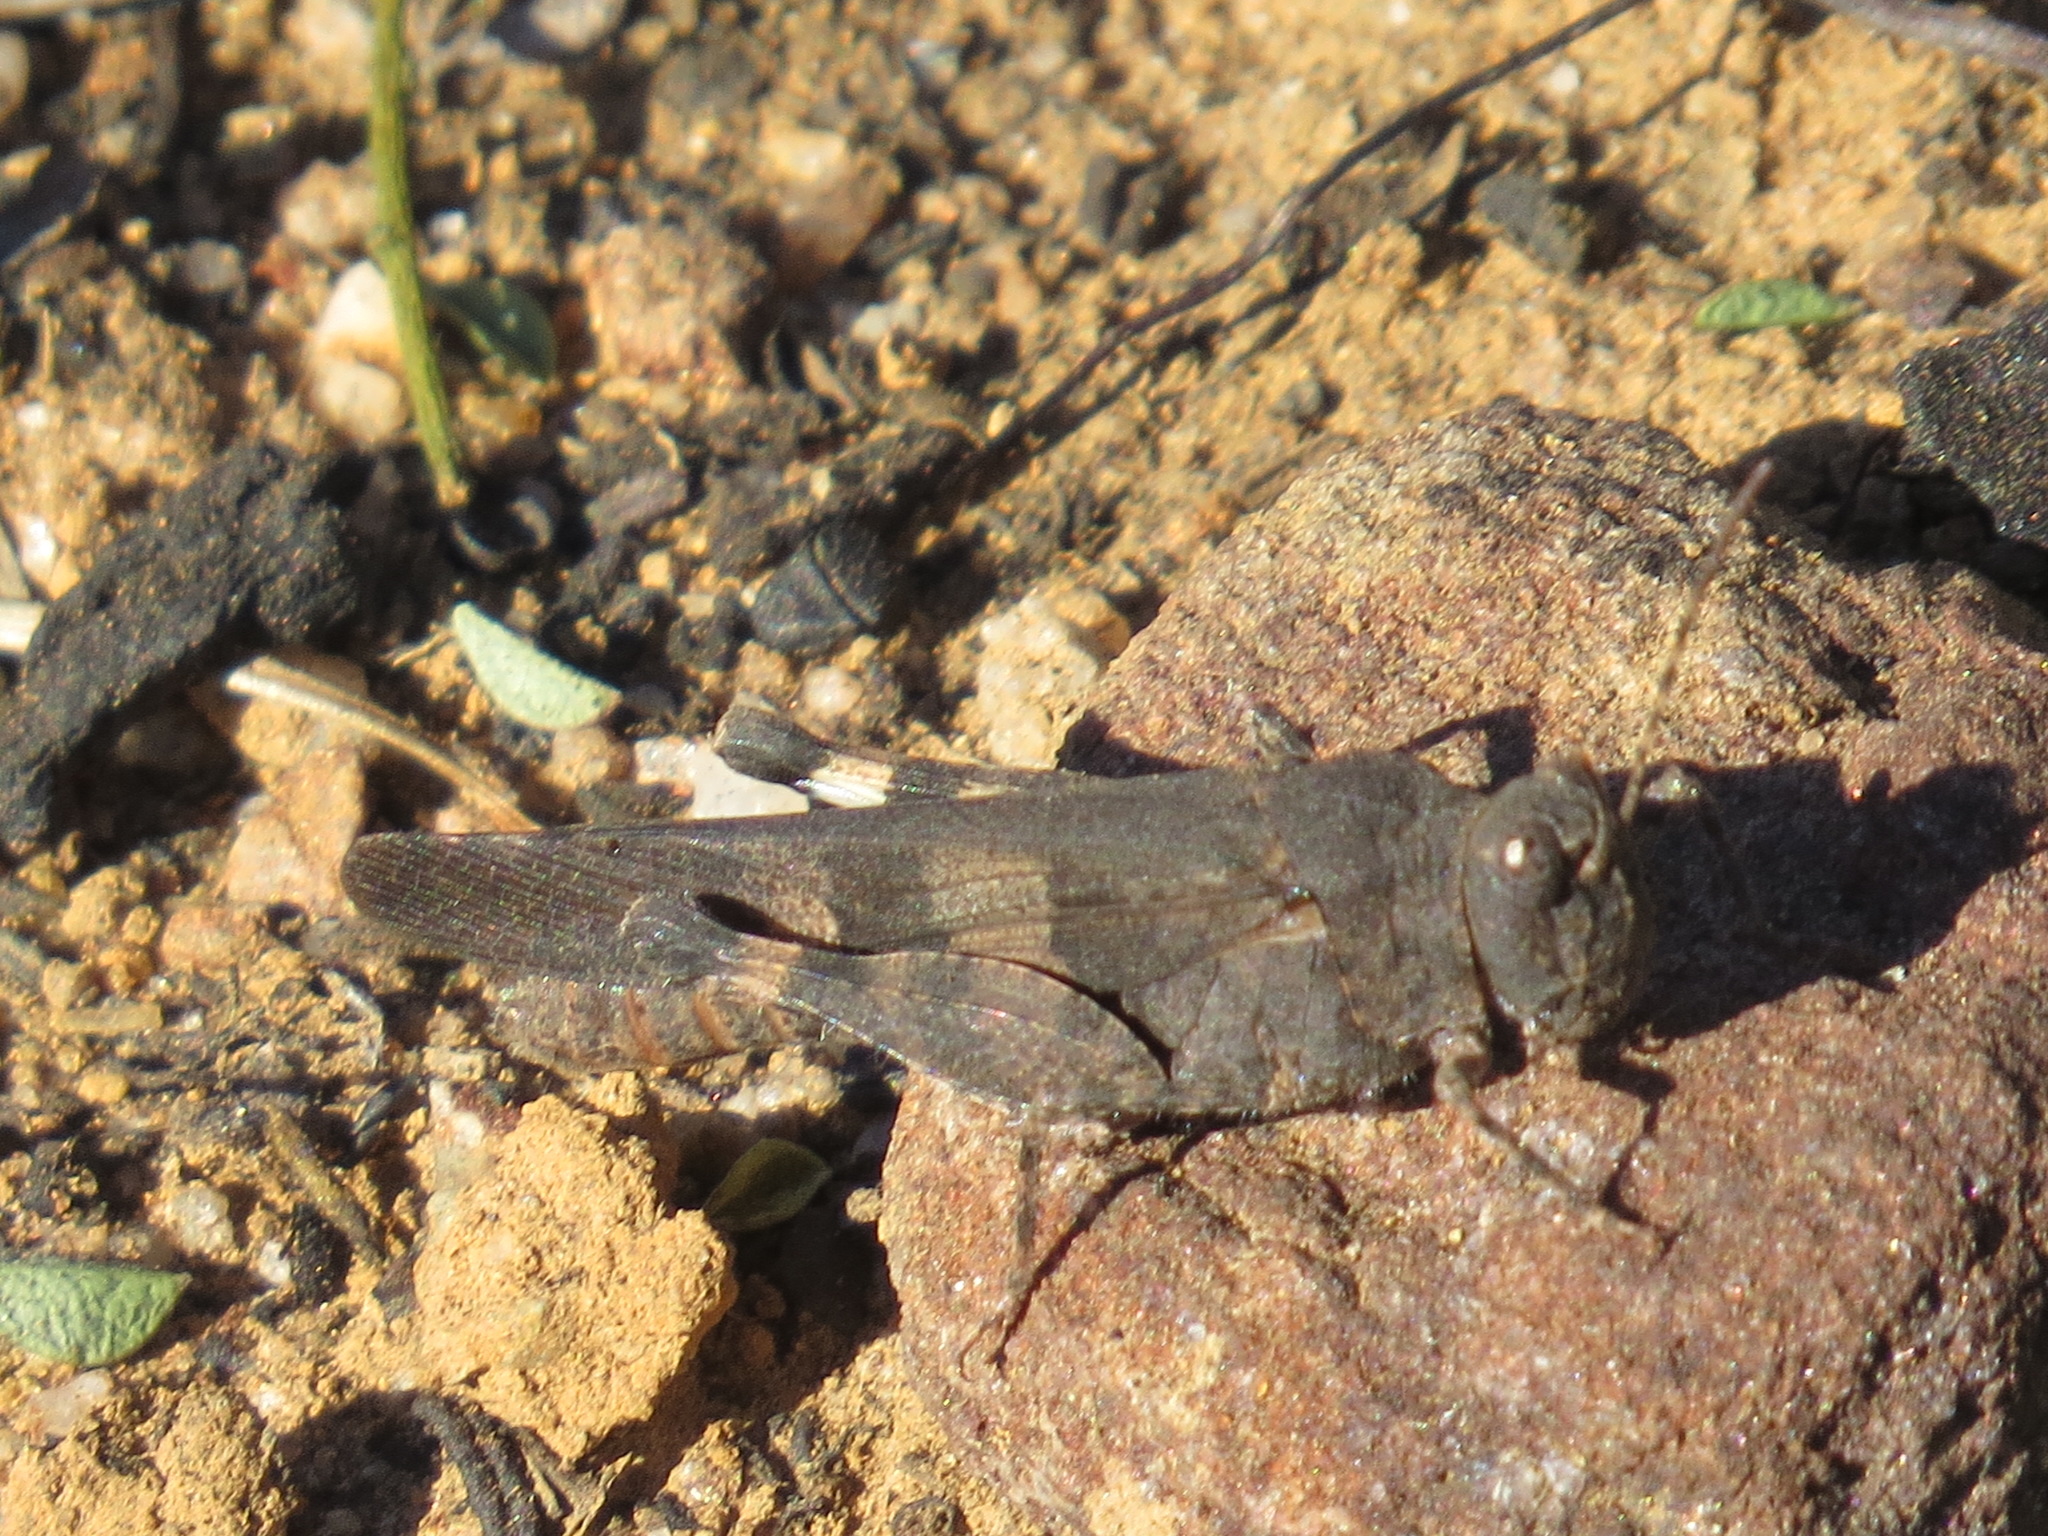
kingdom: Animalia
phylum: Arthropoda
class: Insecta
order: Orthoptera
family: Acrididae
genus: Trimerotropis
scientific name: Trimerotropis fontana
